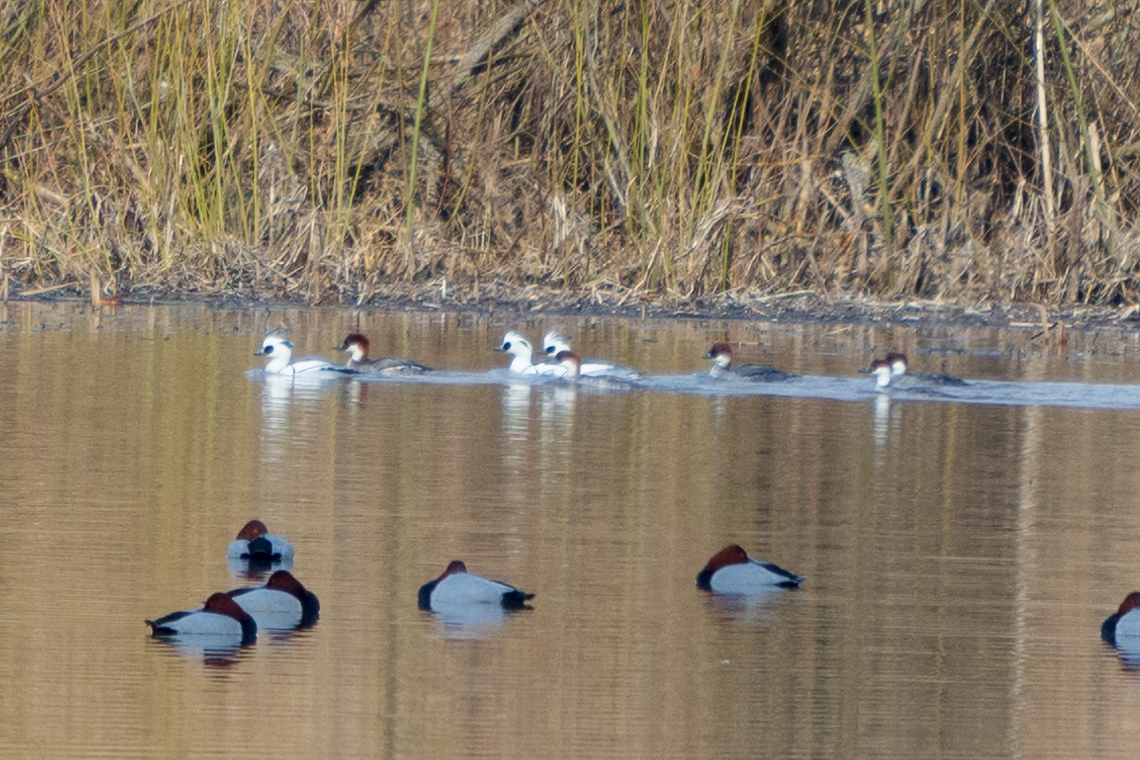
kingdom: Animalia
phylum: Chordata
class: Aves
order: Anseriformes
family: Anatidae
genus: Mergellus
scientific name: Mergellus albellus
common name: Smew
